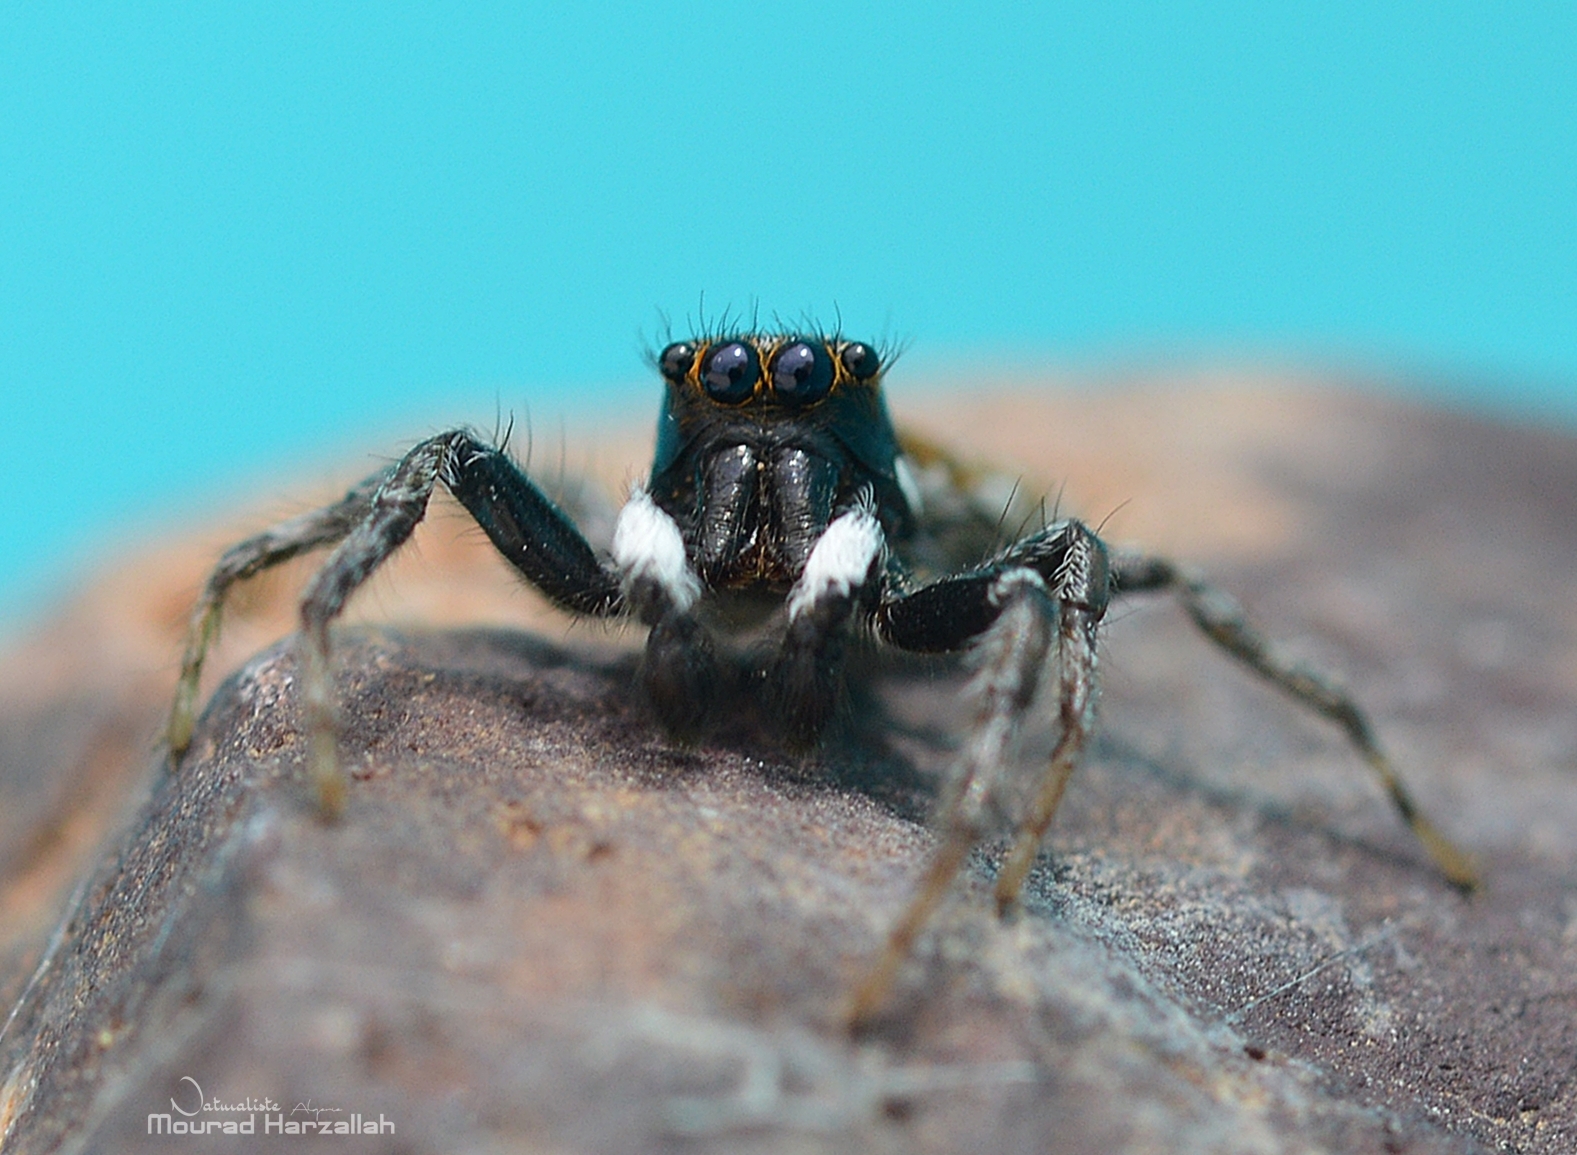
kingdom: Animalia
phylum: Arthropoda
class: Arachnida
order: Araneae
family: Salticidae
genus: Menemerus
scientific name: Menemerus semilimbatus
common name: Jumping spider
